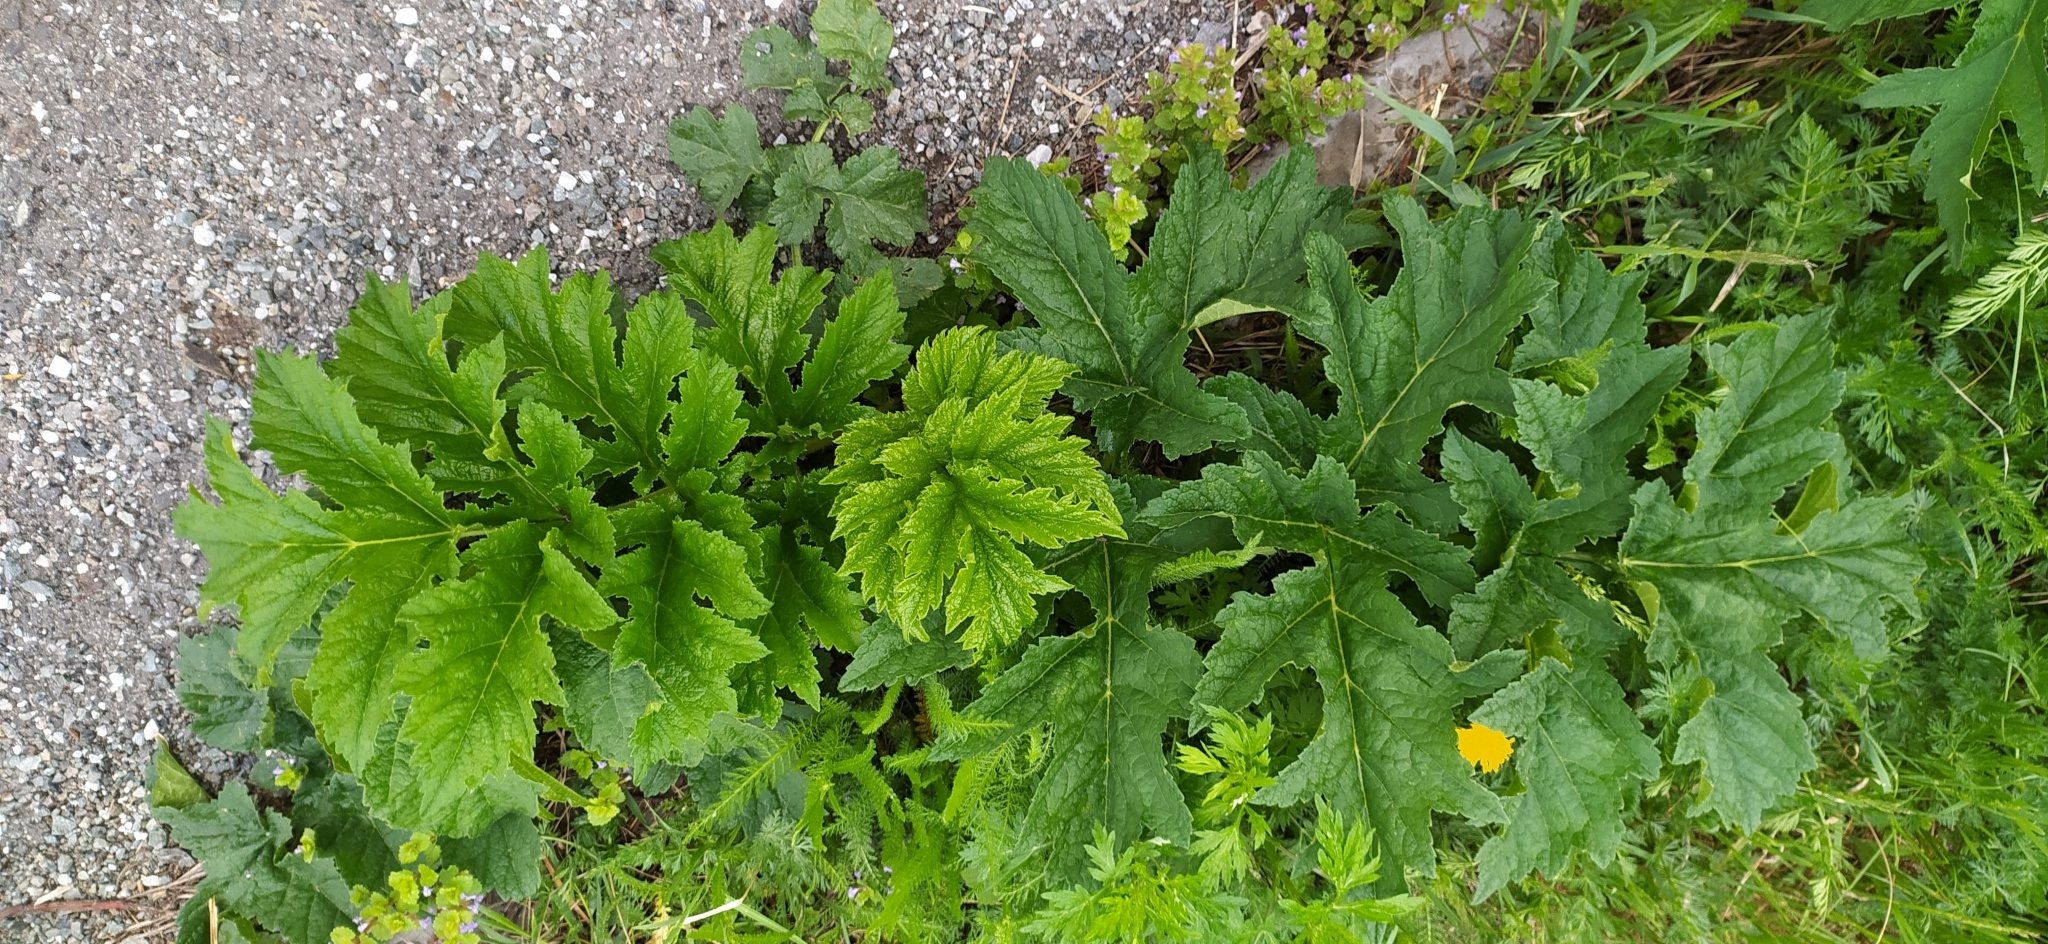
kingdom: Plantae
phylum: Tracheophyta
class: Magnoliopsida
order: Apiales
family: Apiaceae
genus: Heracleum
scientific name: Heracleum sosnowskyi
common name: Sosnowsky's hogweed
